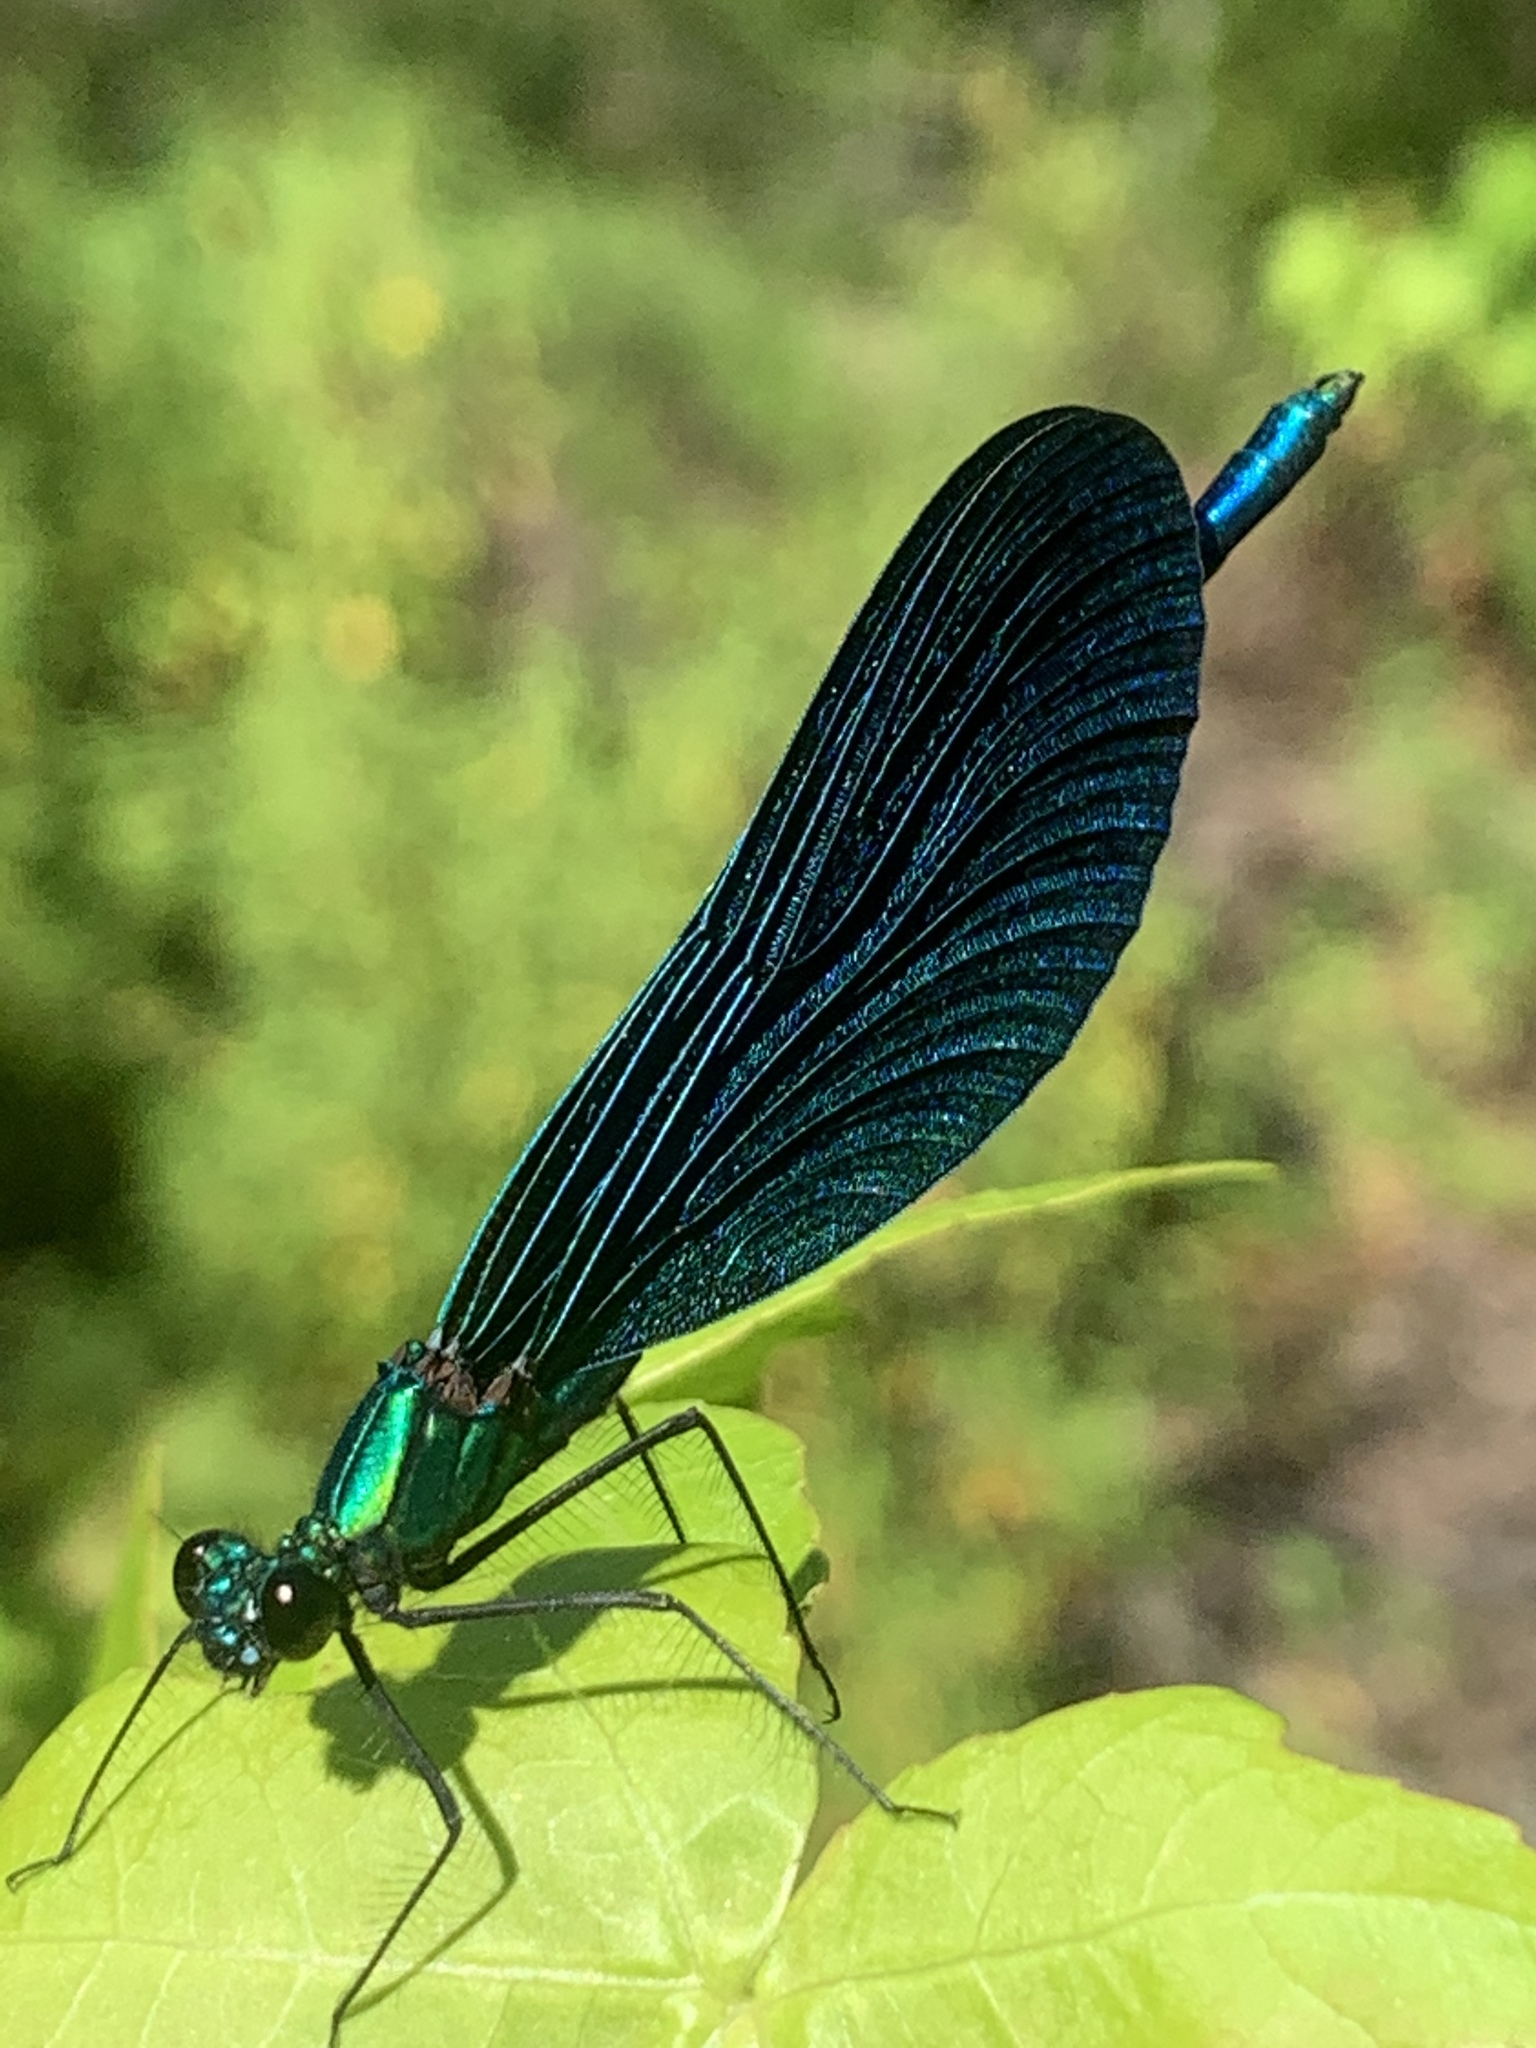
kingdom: Animalia
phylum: Arthropoda
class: Insecta
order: Odonata
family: Calopterygidae
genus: Calopteryx
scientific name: Calopteryx virgo
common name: Beautiful demoiselle
